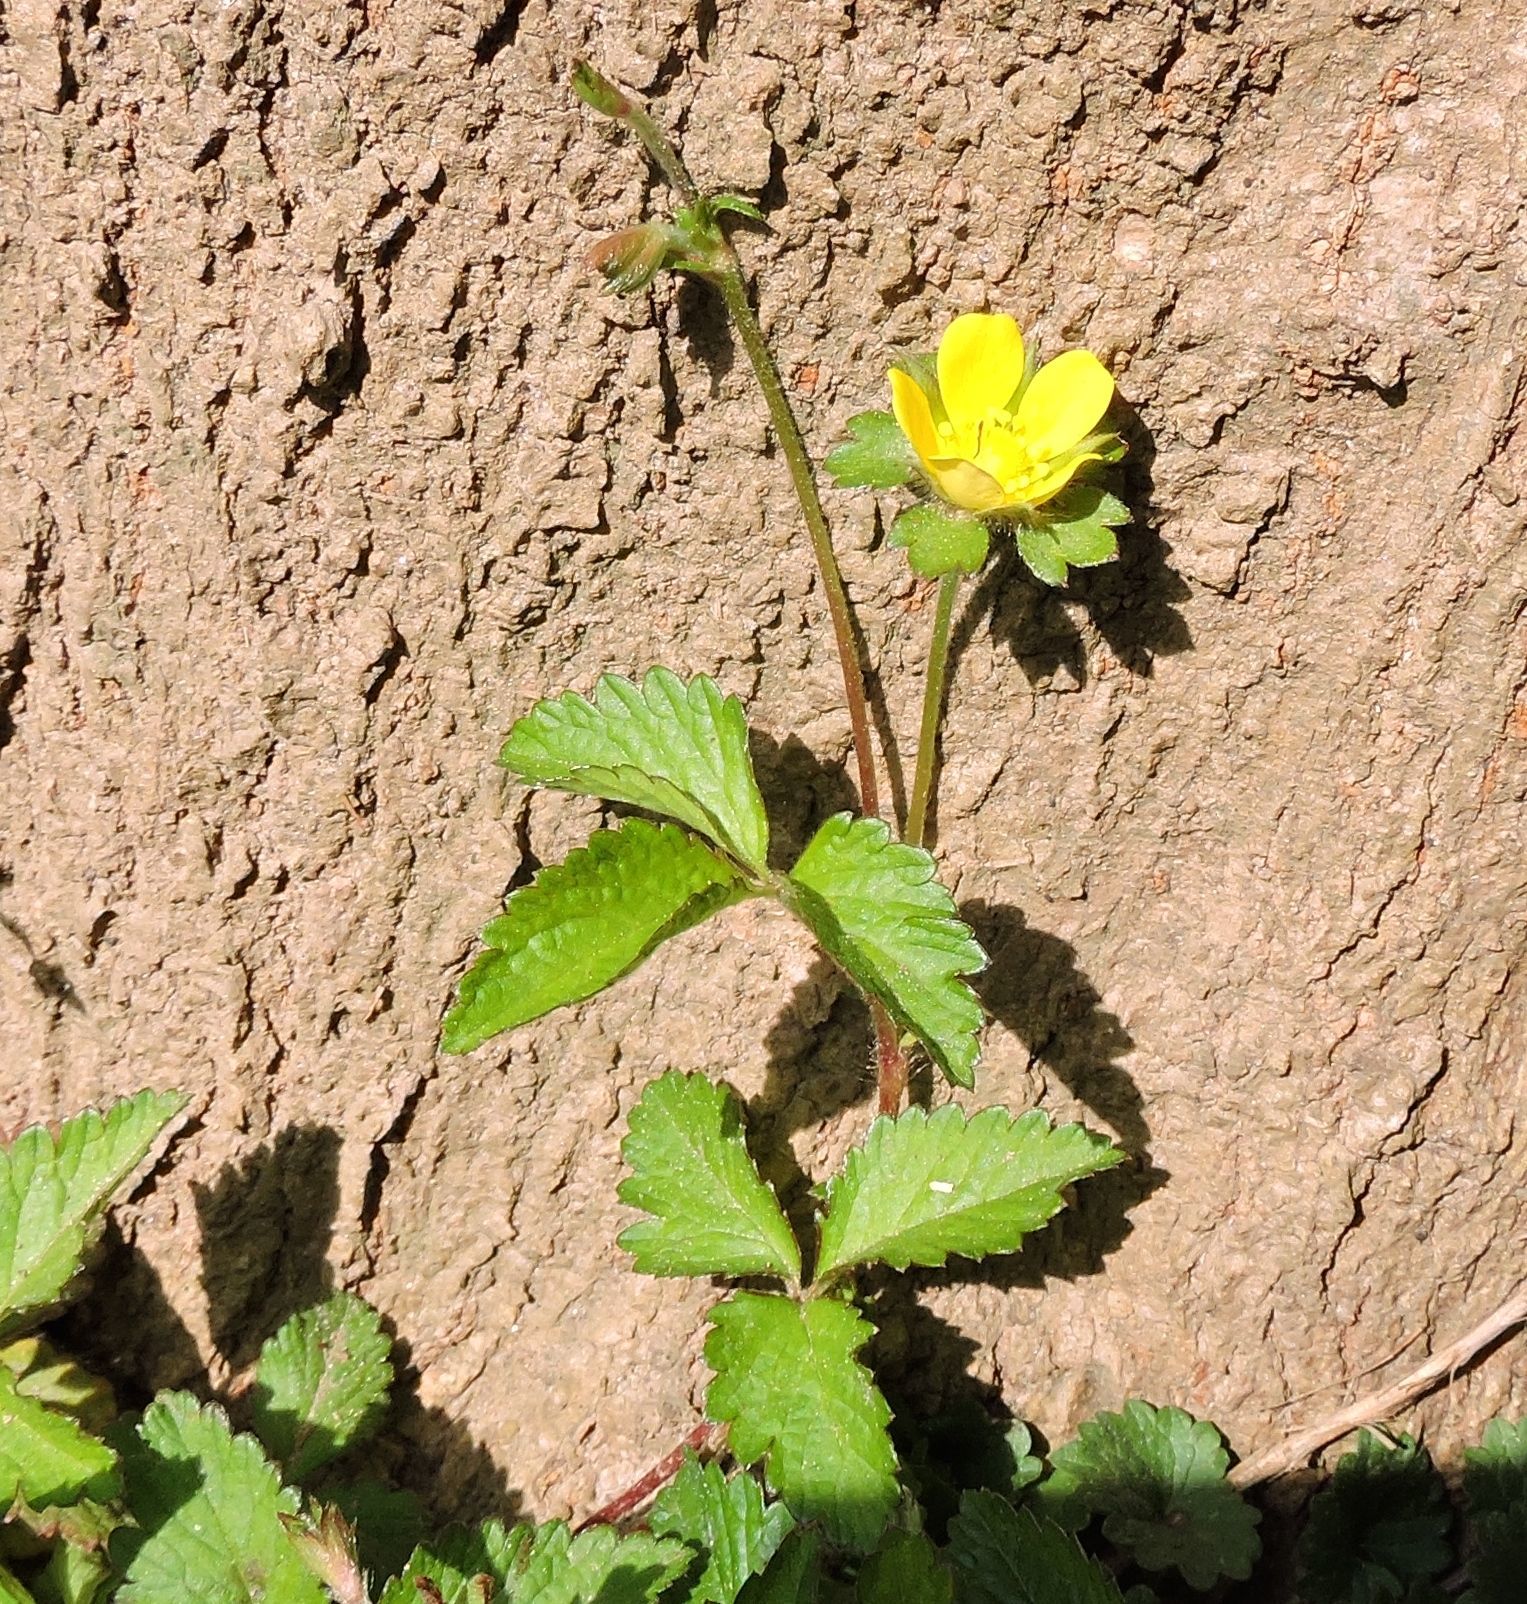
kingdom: Plantae
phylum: Tracheophyta
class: Magnoliopsida
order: Rosales
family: Rosaceae
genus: Potentilla
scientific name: Potentilla indica
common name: Yellow-flowered strawberry
